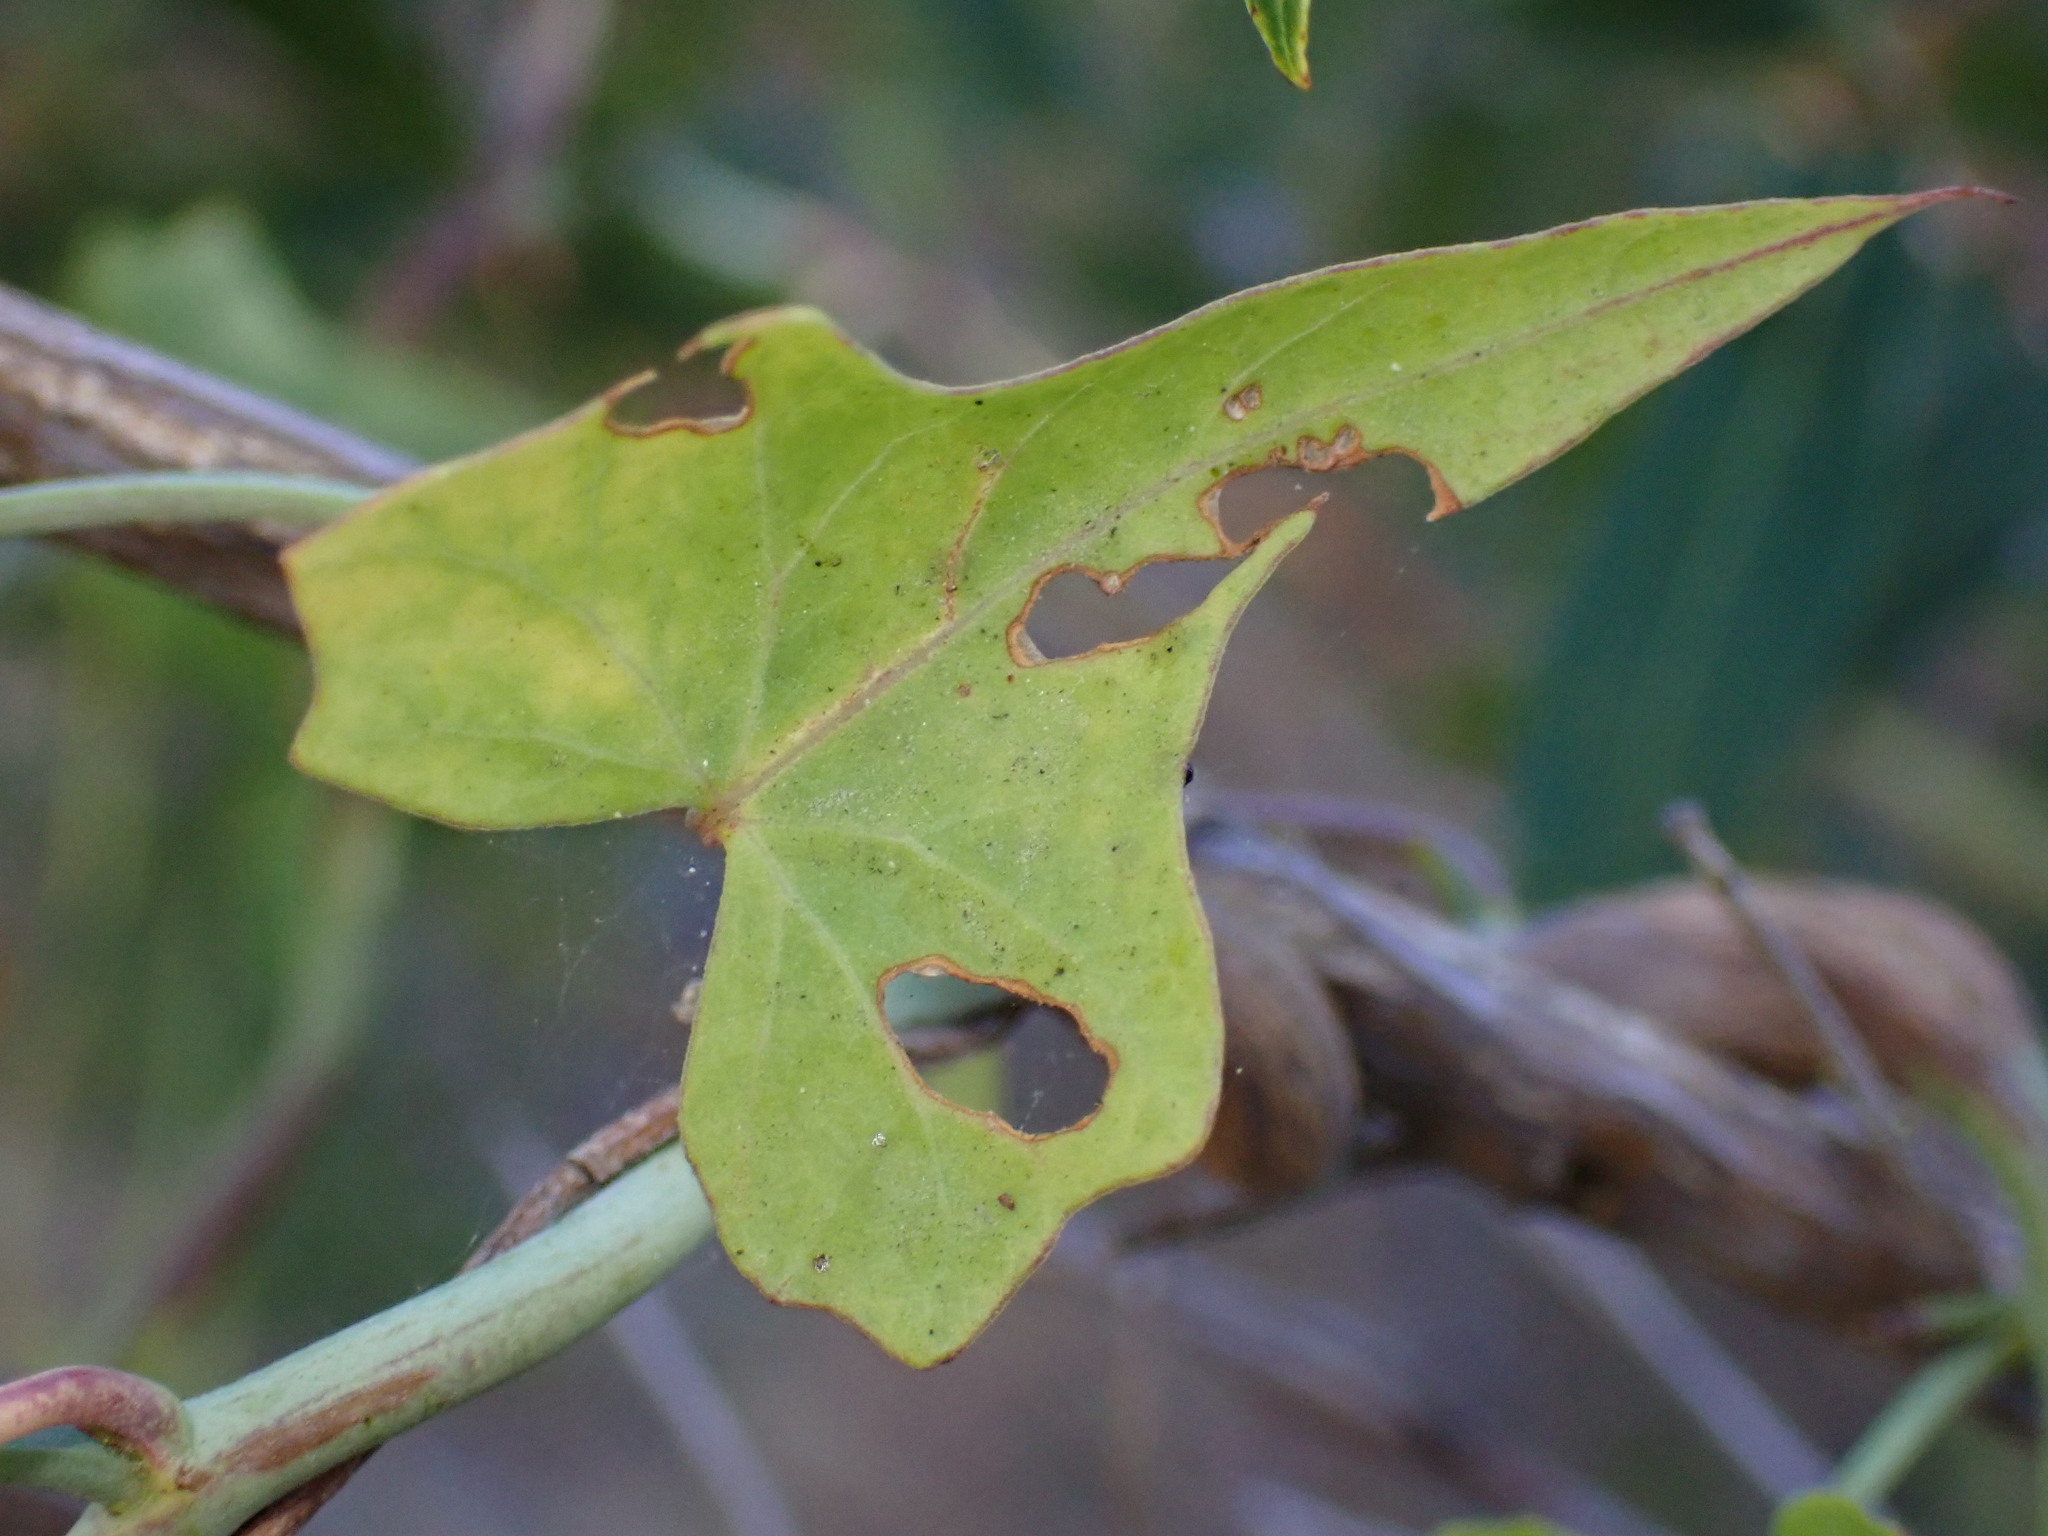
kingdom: Animalia
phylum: Arthropoda
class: Insecta
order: Diptera
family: Cecidomyiidae
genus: Neolasioptera
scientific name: Neolasioptera convolvuli
